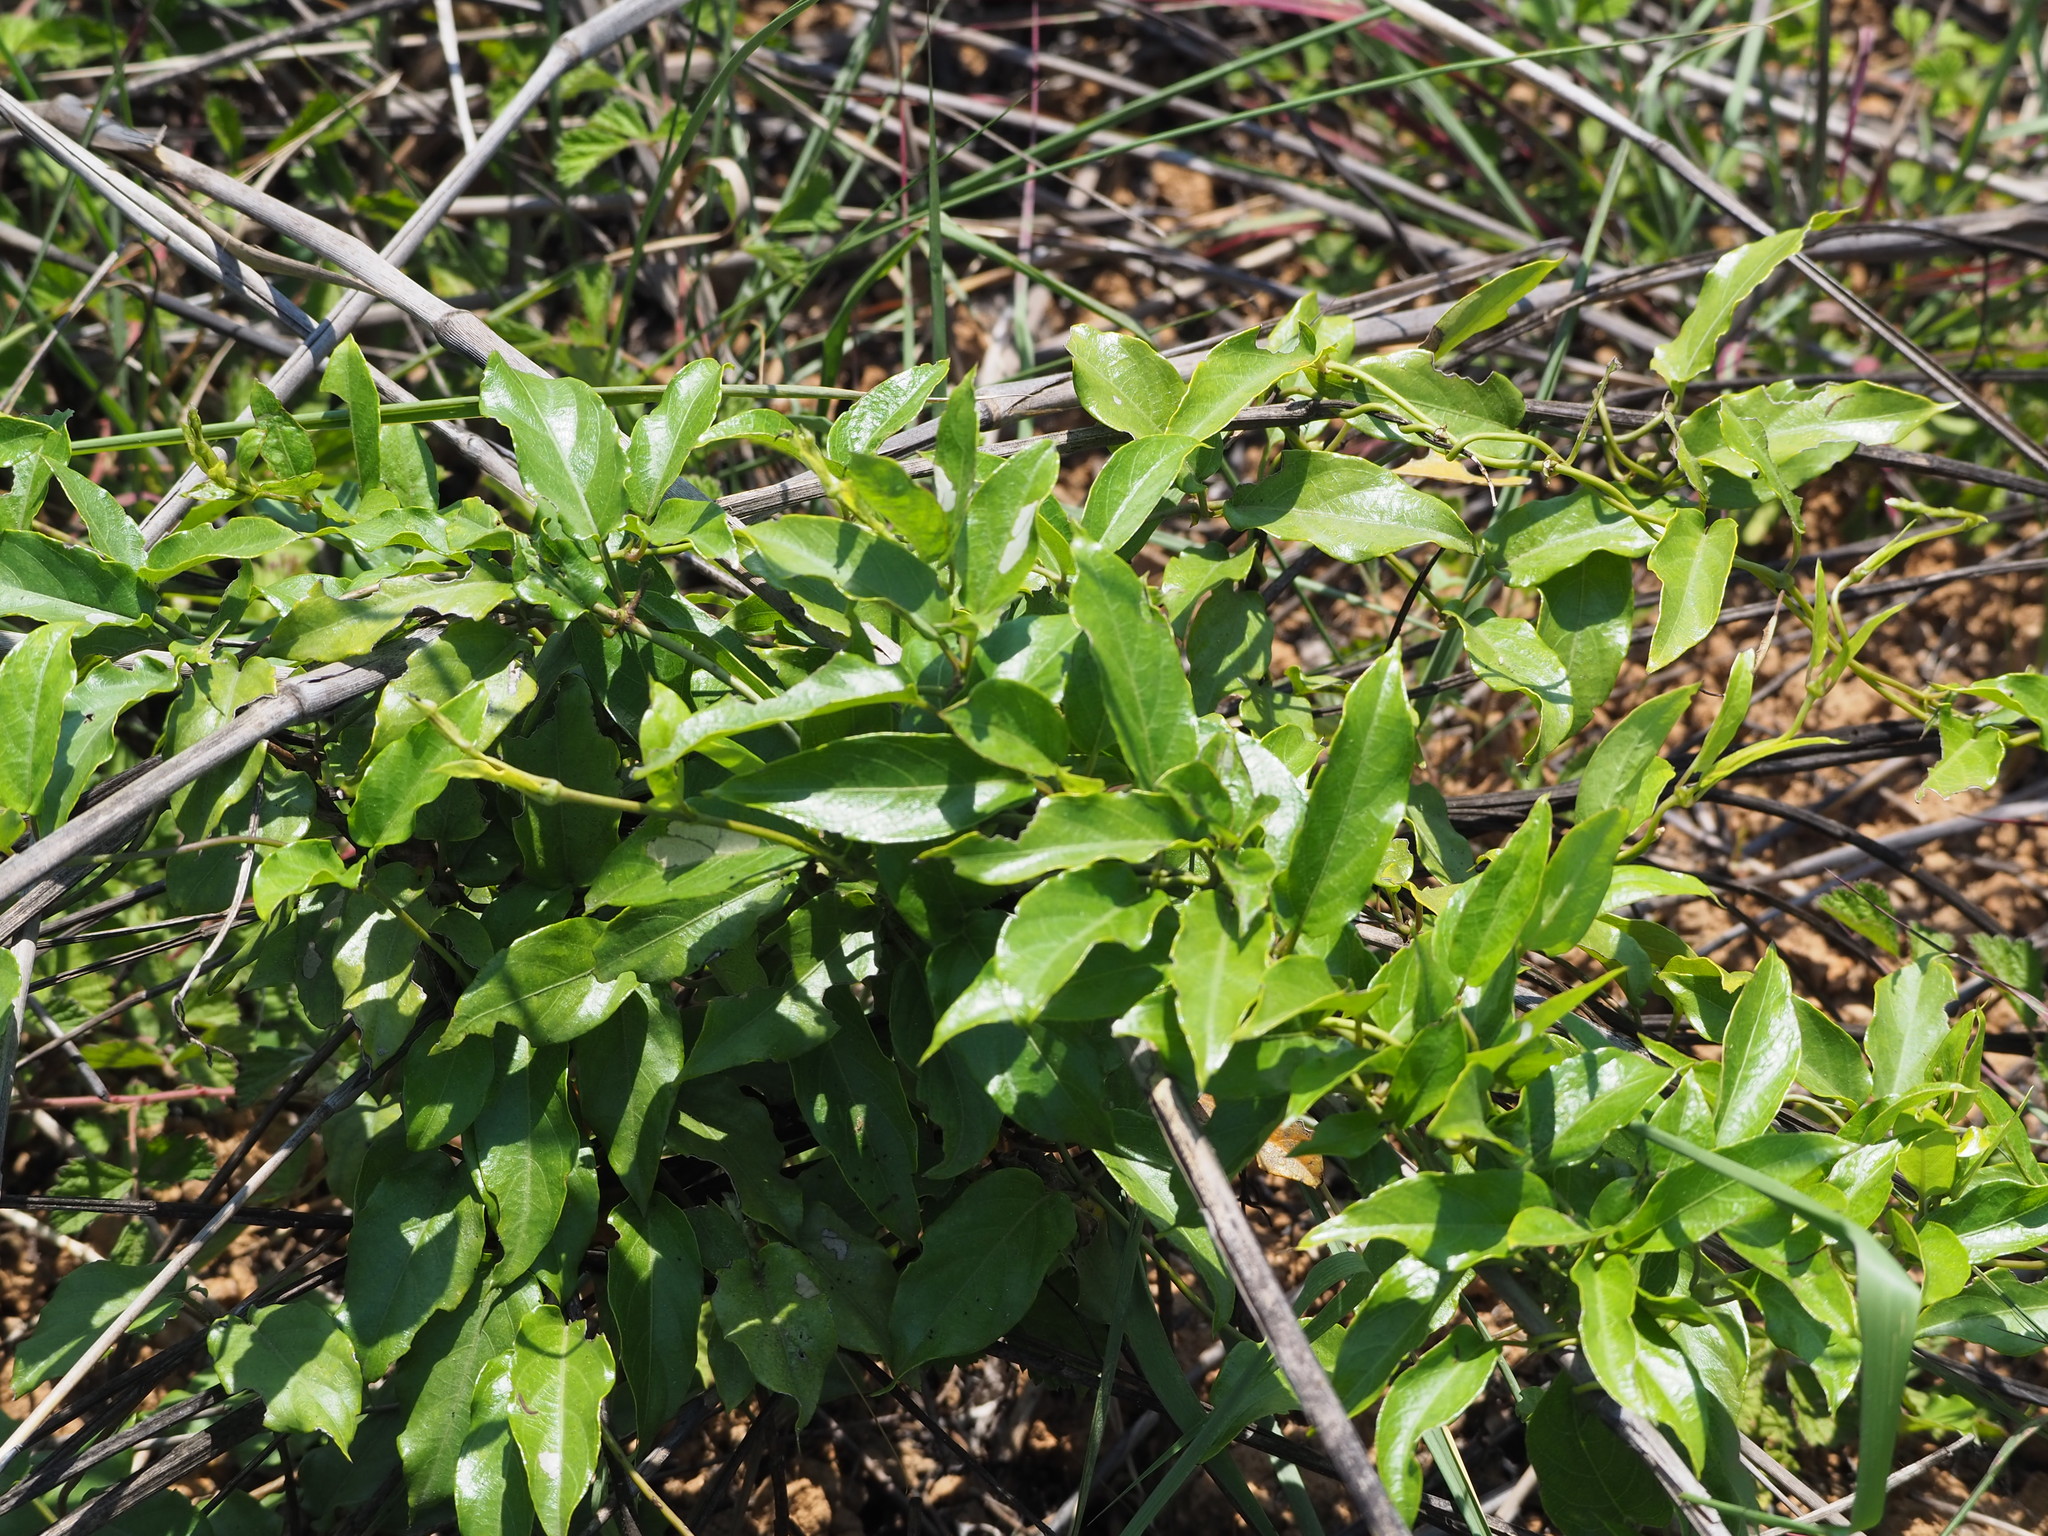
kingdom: Plantae
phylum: Tracheophyta
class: Magnoliopsida
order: Gentianales
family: Rubiaceae
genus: Paederia
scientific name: Paederia foetida
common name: Stinkvine
